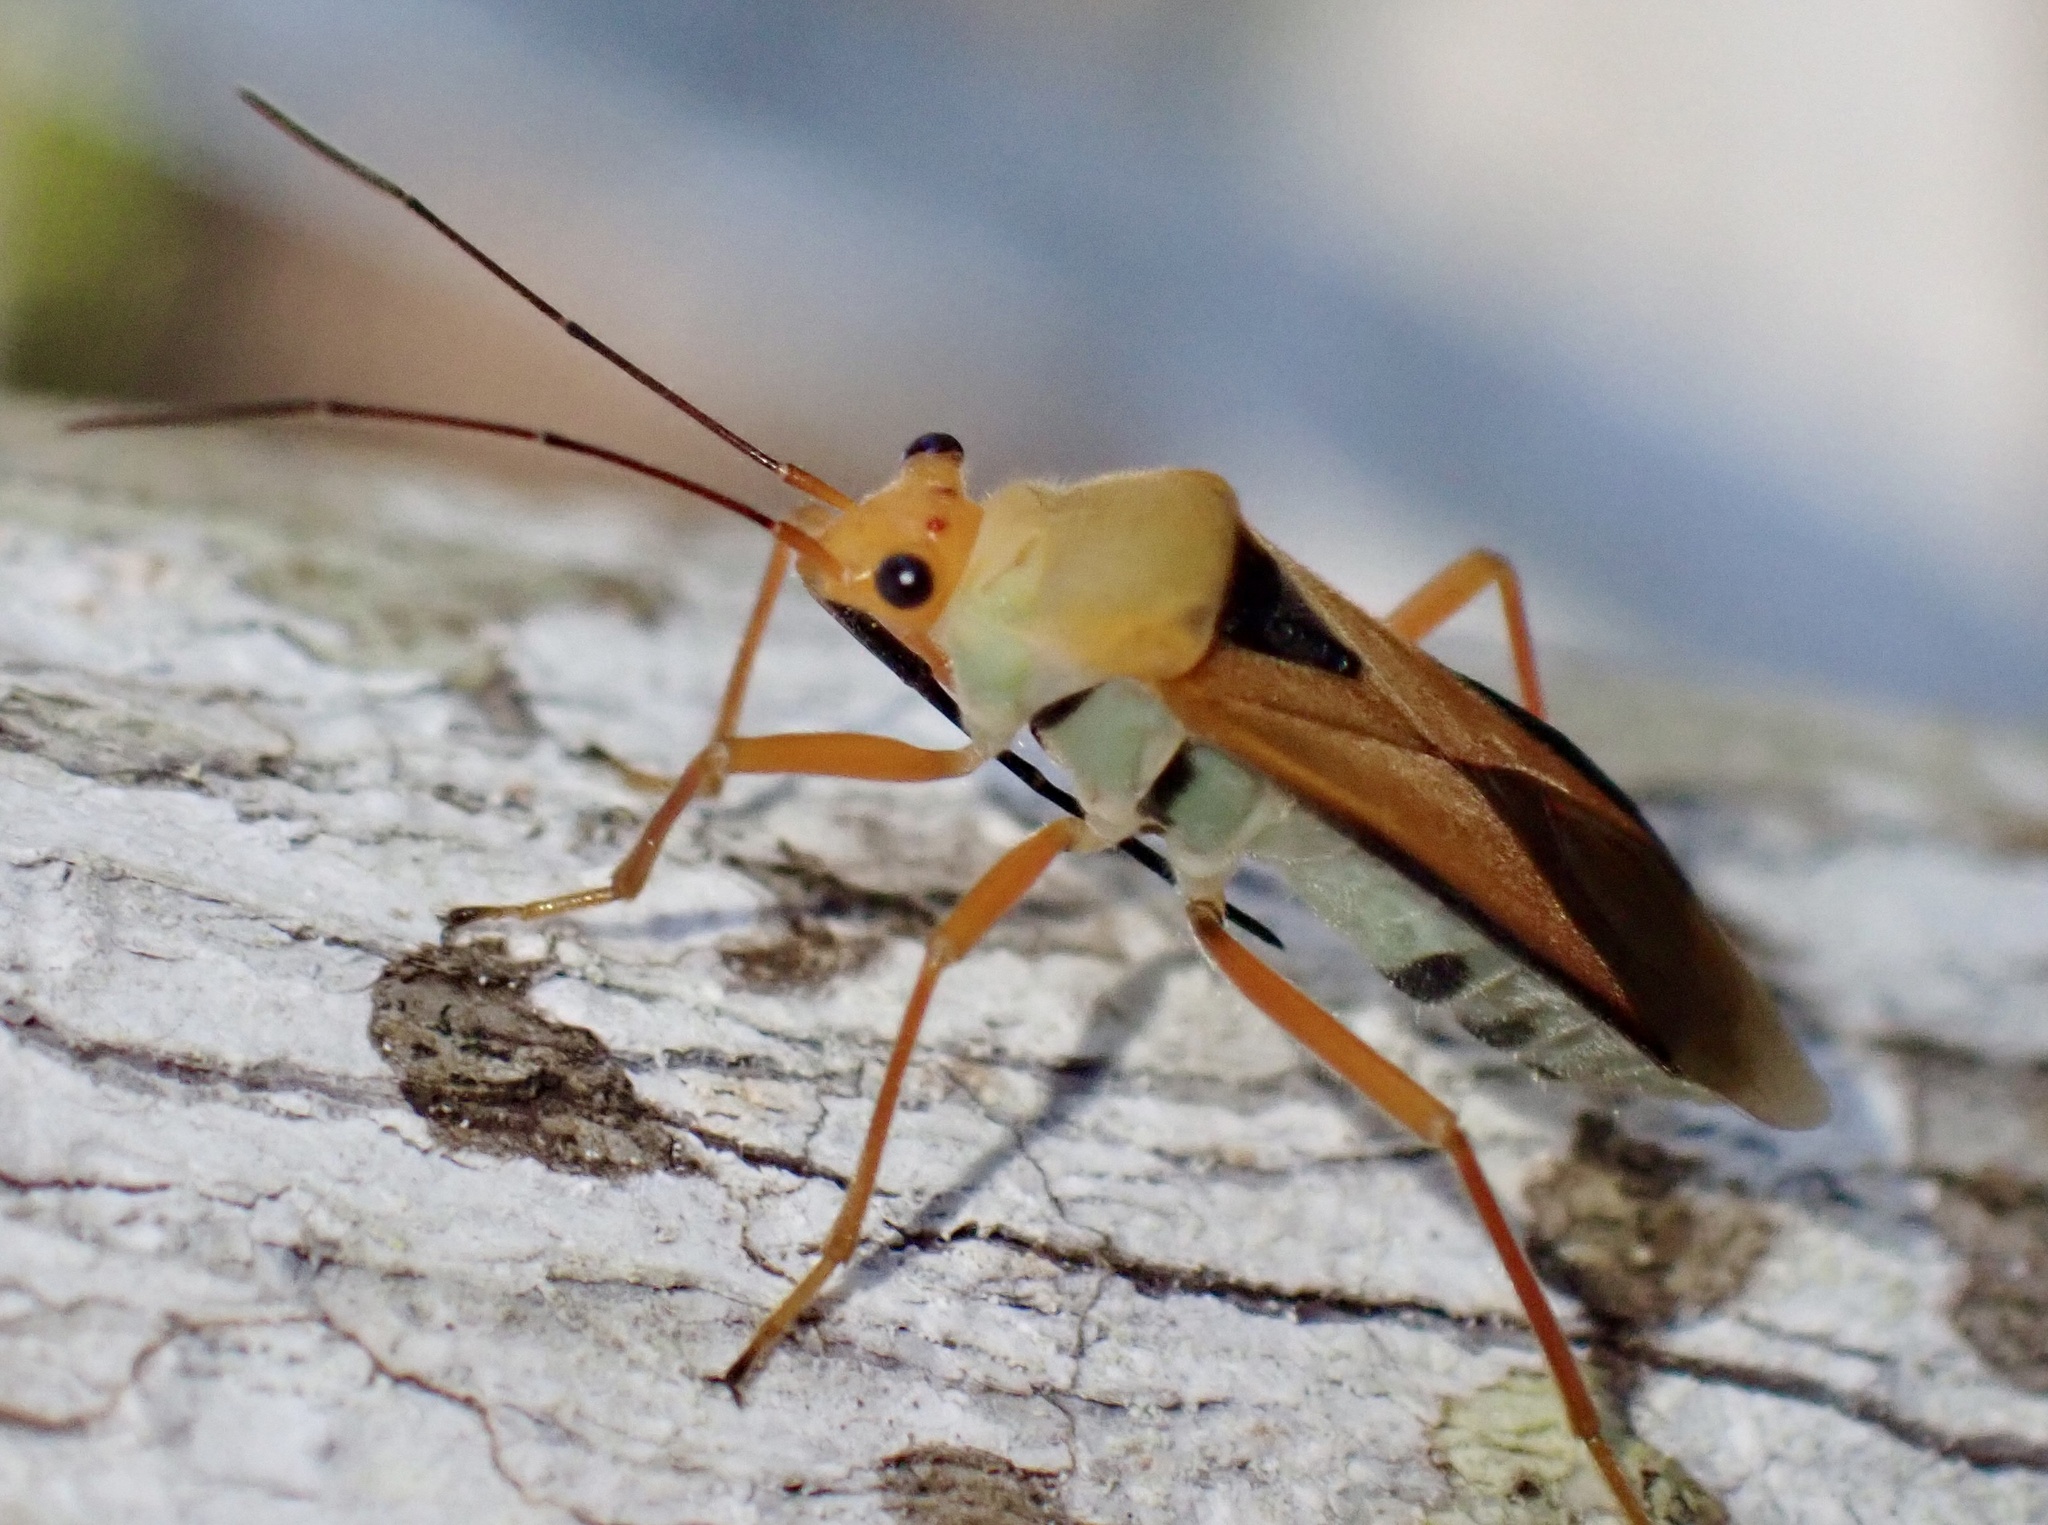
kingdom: Animalia
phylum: Arthropoda
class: Insecta
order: Hemiptera
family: Lygaeidae
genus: Astacops
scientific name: Astacops viridiventris
